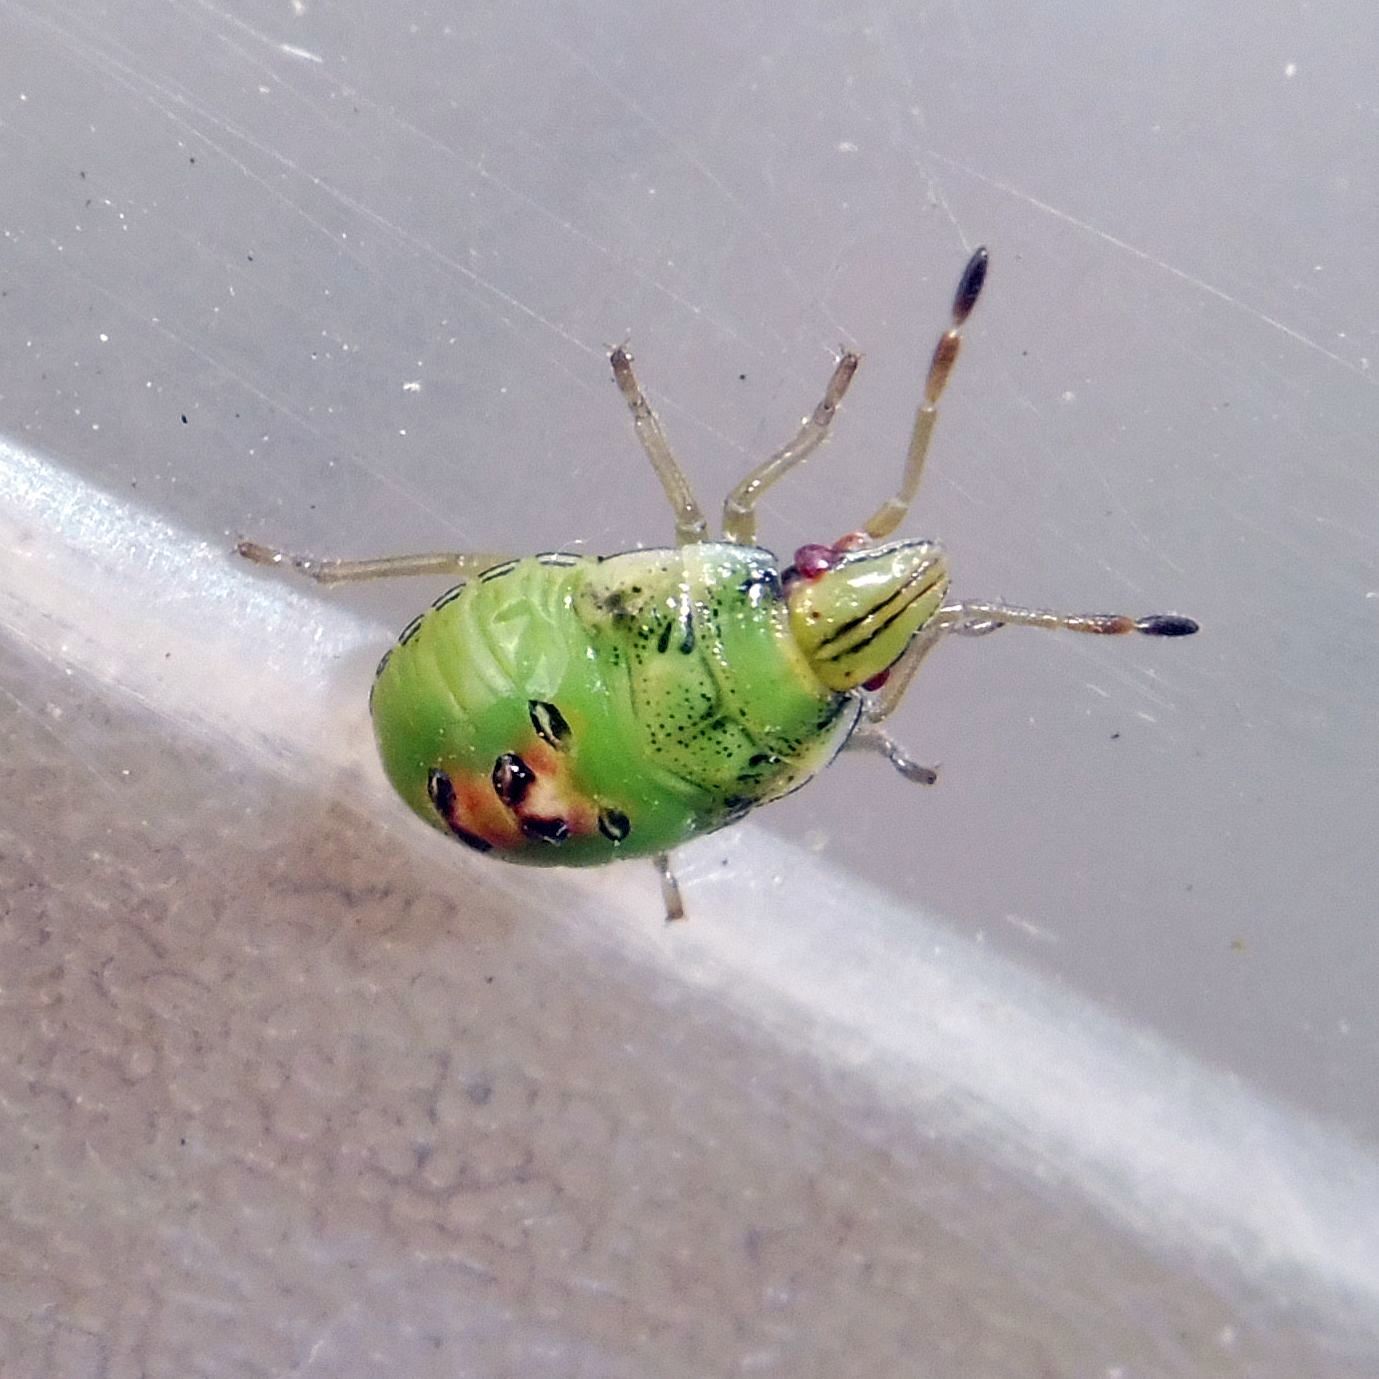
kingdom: Animalia
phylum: Arthropoda
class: Insecta
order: Hemiptera
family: Acanthosomatidae
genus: Cyphostethus
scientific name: Cyphostethus tristriatus
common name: Juniper shieldbug
